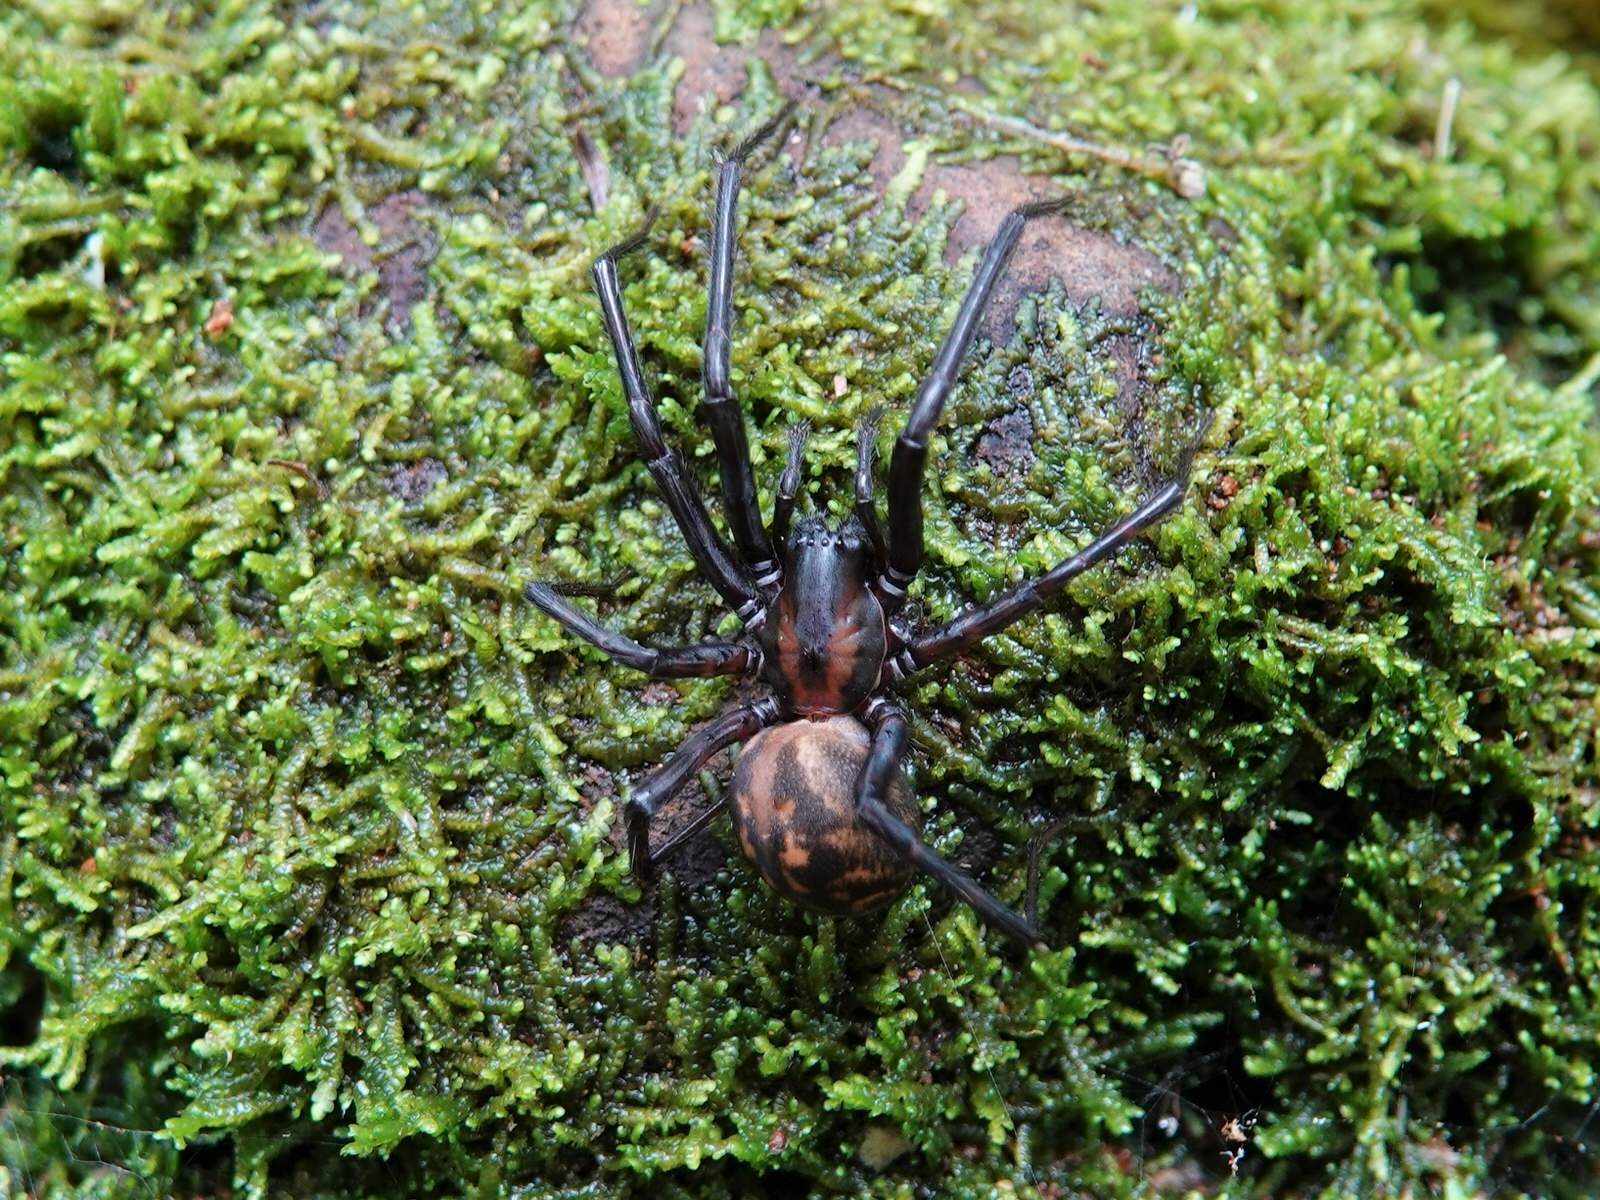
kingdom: Animalia
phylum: Arthropoda
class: Arachnida
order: Araneae
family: Desidae
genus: Cambridgea
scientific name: Cambridgea plagiata
